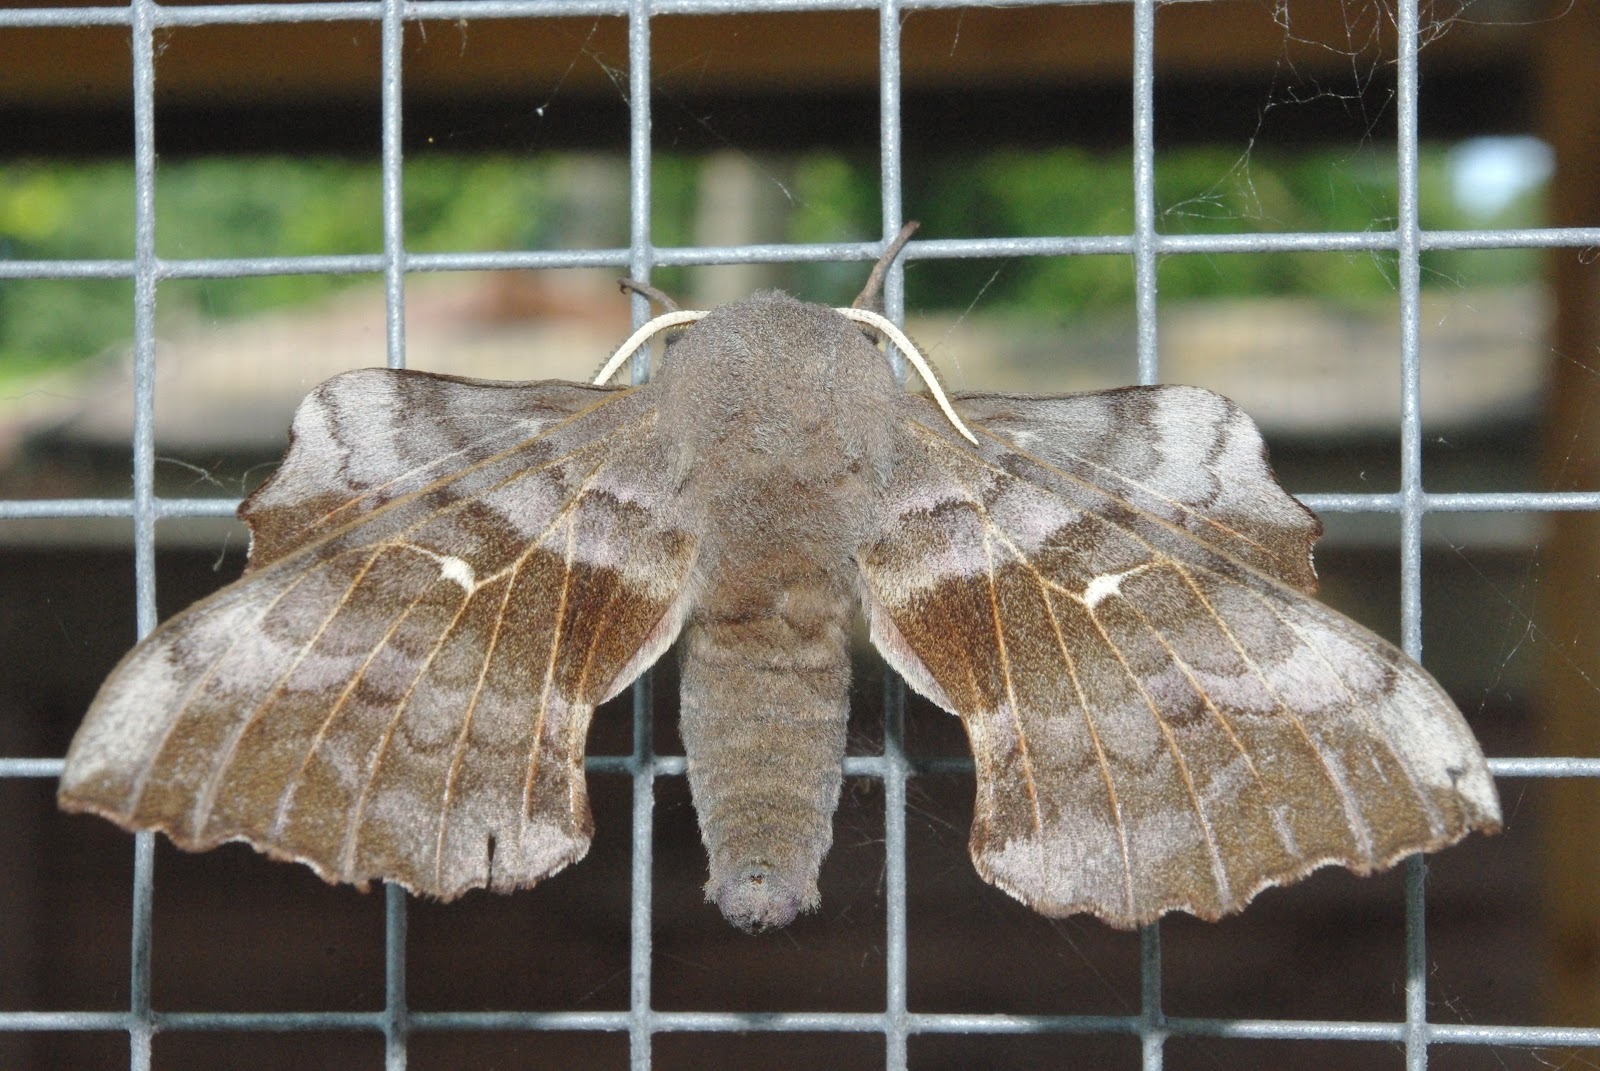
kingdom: Animalia
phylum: Arthropoda
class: Insecta
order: Lepidoptera
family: Sphingidae
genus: Laothoe
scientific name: Laothoe populi
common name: Poplar hawk-moth
